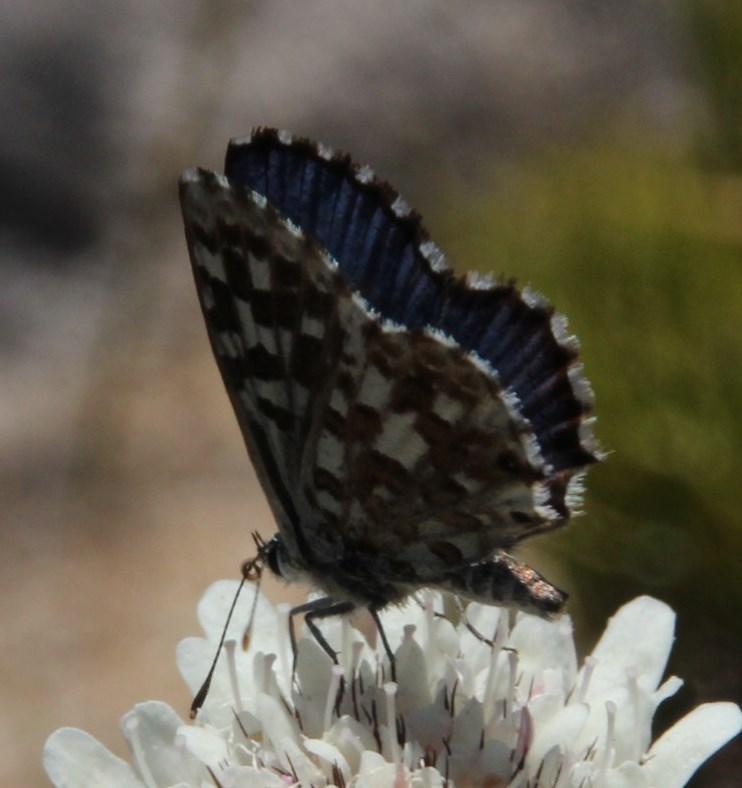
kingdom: Animalia
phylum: Arthropoda
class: Insecta
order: Lepidoptera
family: Lycaenidae
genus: Tarucus
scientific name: Tarucus thespis
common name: Vivid dotted blue
